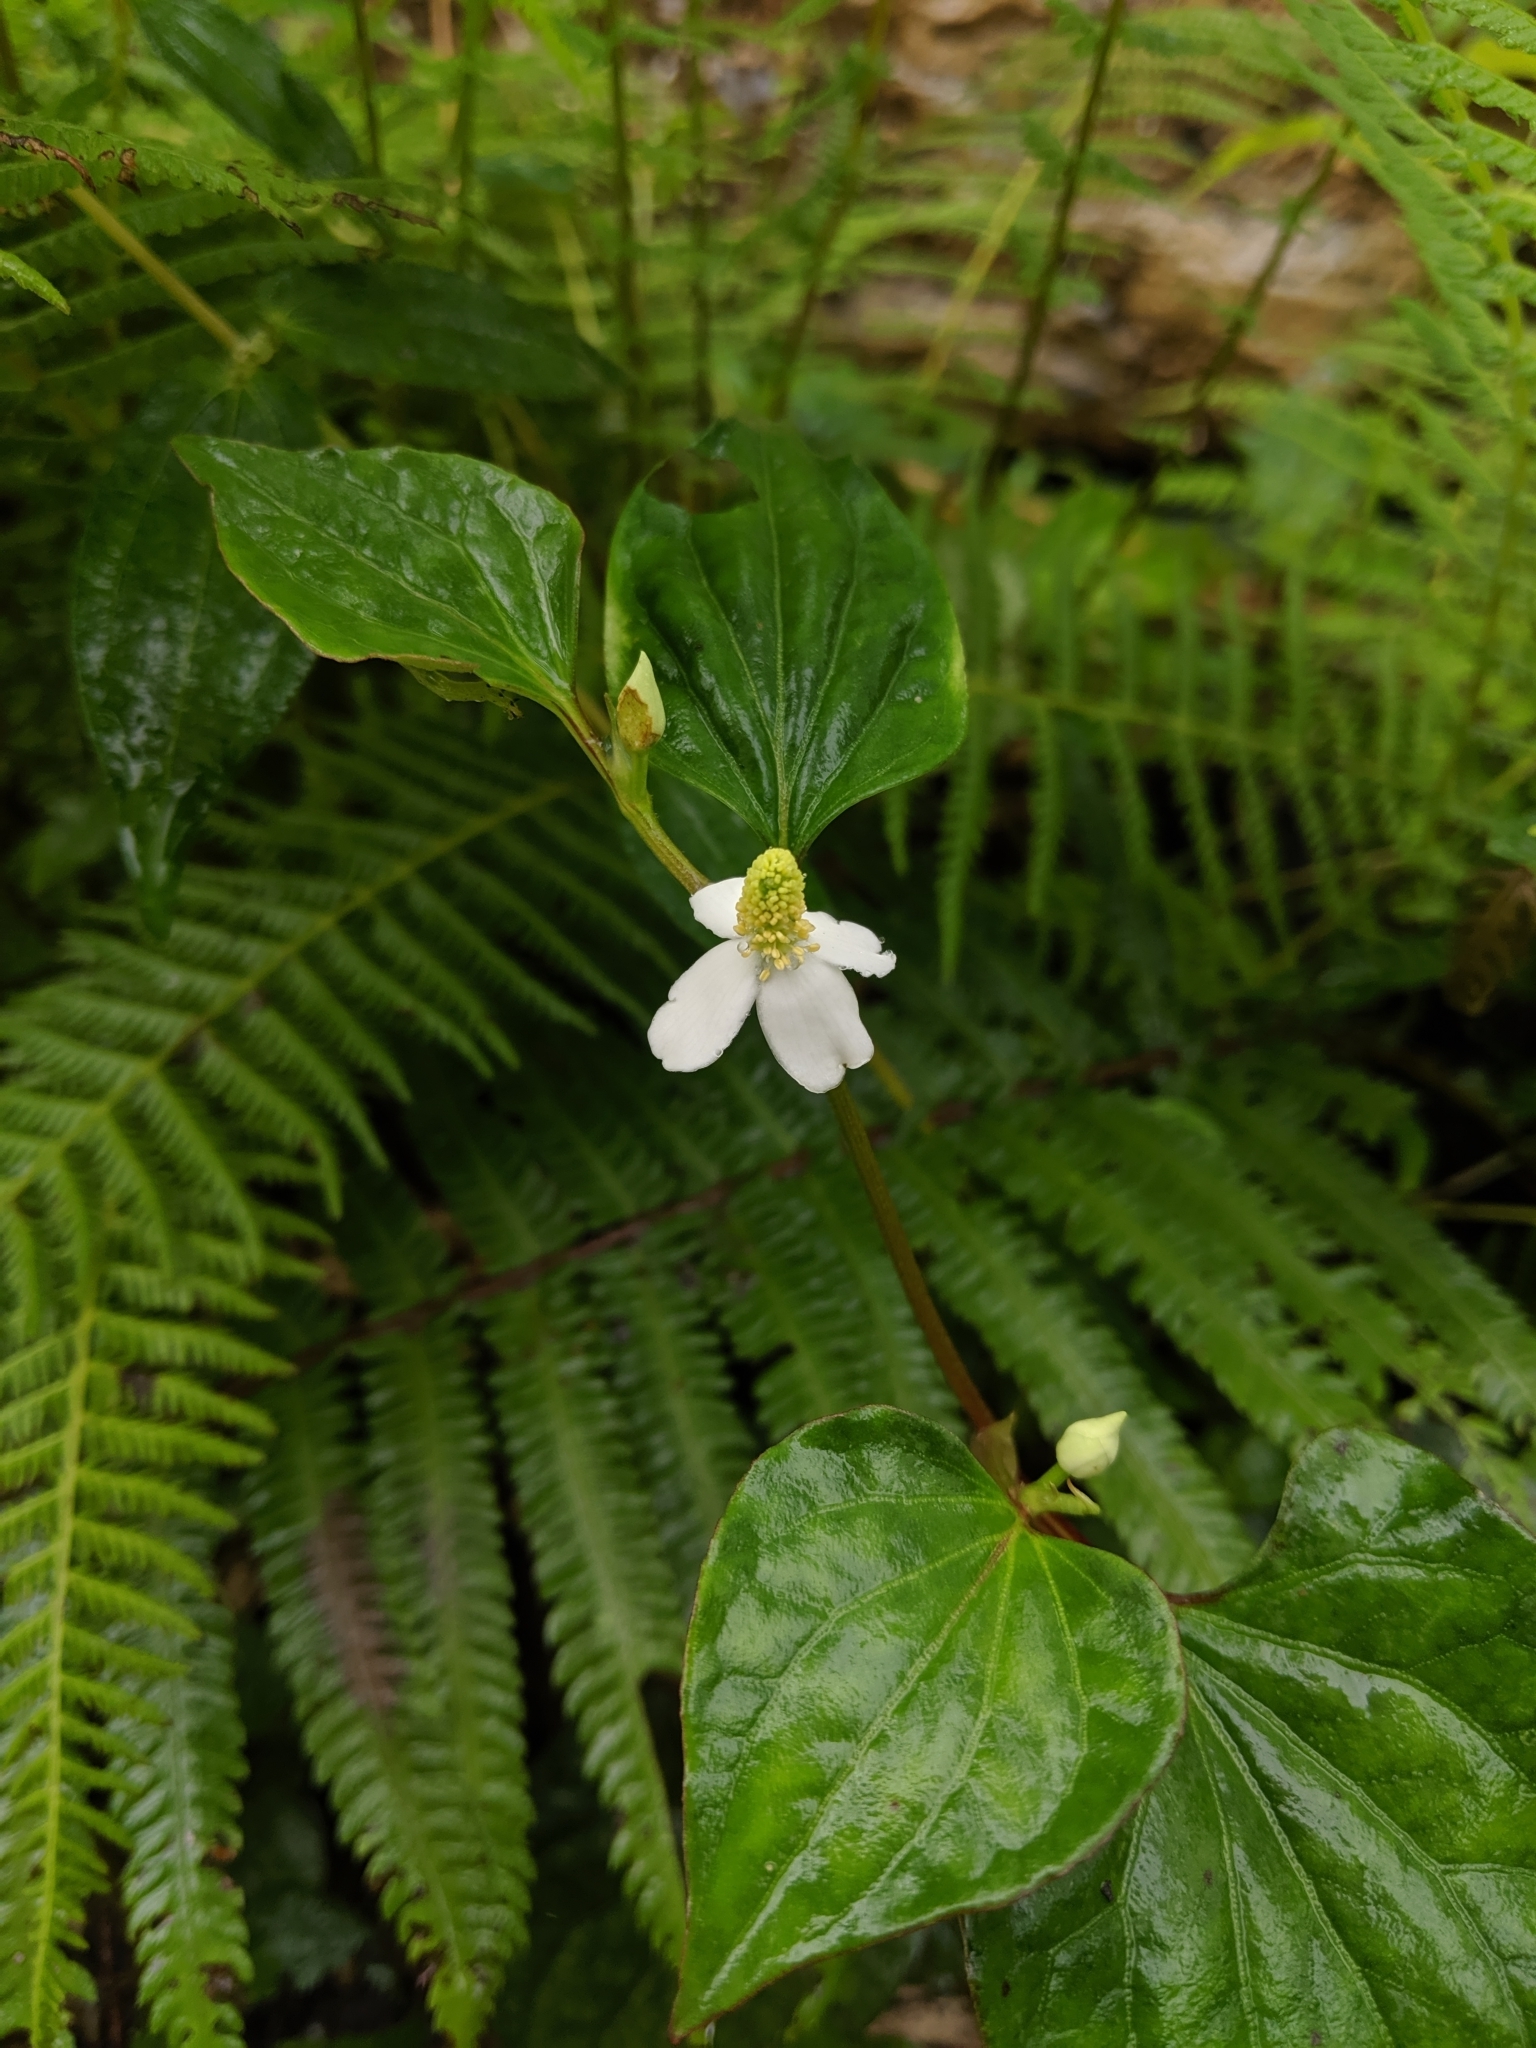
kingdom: Plantae
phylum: Tracheophyta
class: Magnoliopsida
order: Piperales
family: Saururaceae
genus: Houttuynia
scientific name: Houttuynia cordata
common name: Chameleon
